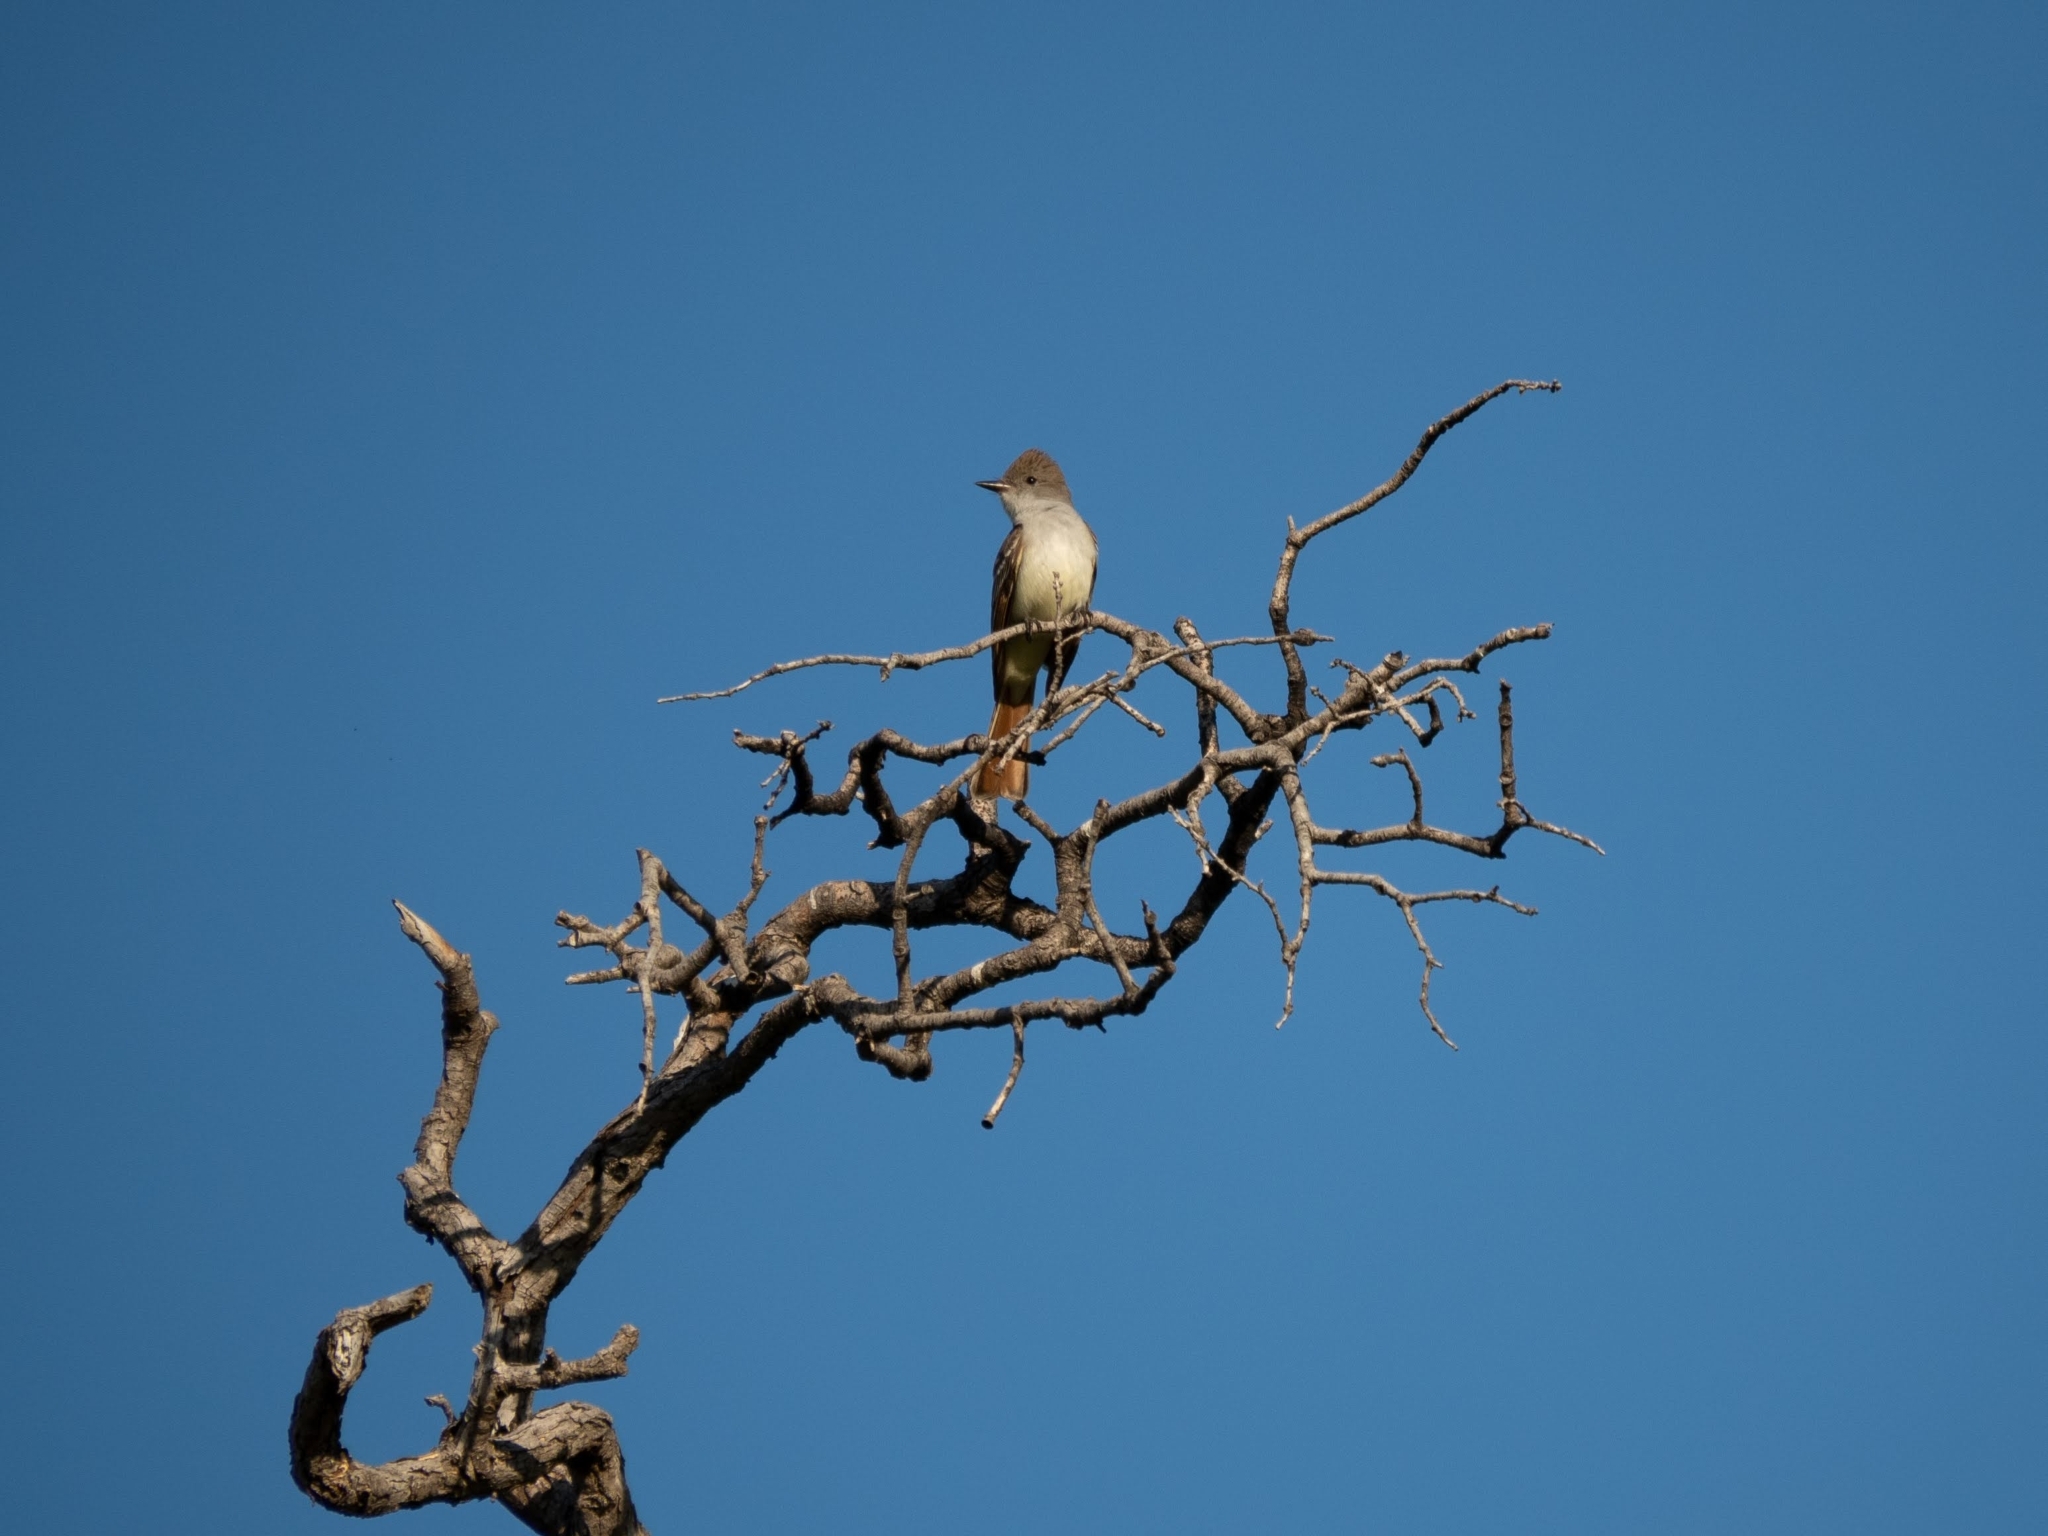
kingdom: Animalia
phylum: Chordata
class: Aves
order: Passeriformes
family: Tyrannidae
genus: Myiarchus
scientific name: Myiarchus cinerascens
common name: Ash-throated flycatcher
